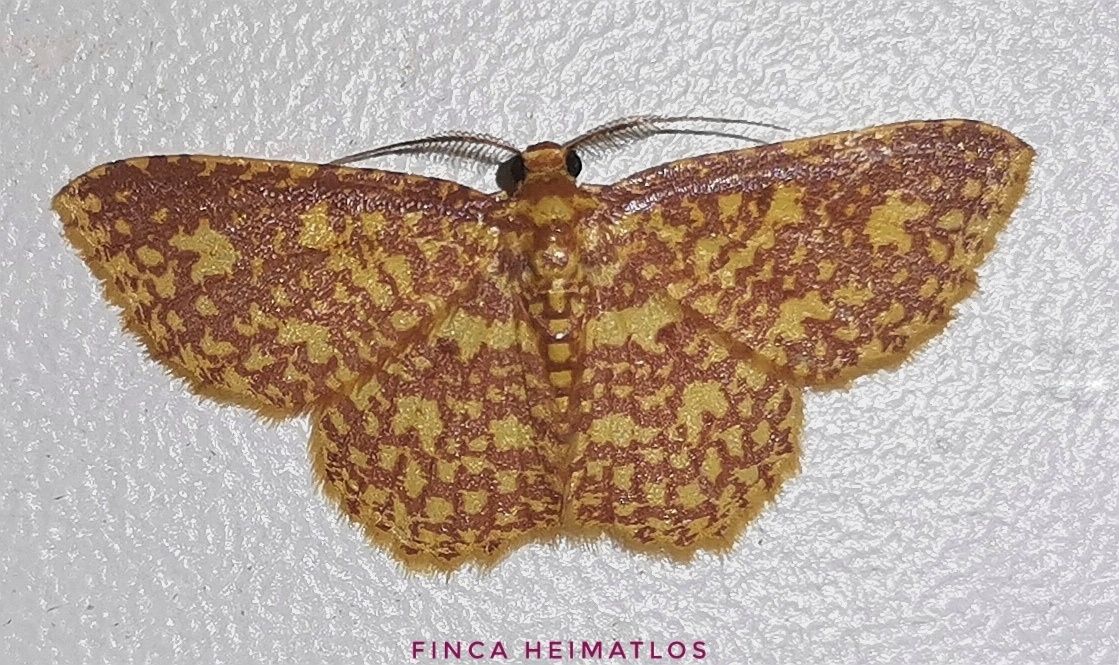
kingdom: Animalia
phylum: Arthropoda
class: Insecta
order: Lepidoptera
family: Geometridae
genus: Eois
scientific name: Eois cancellata
